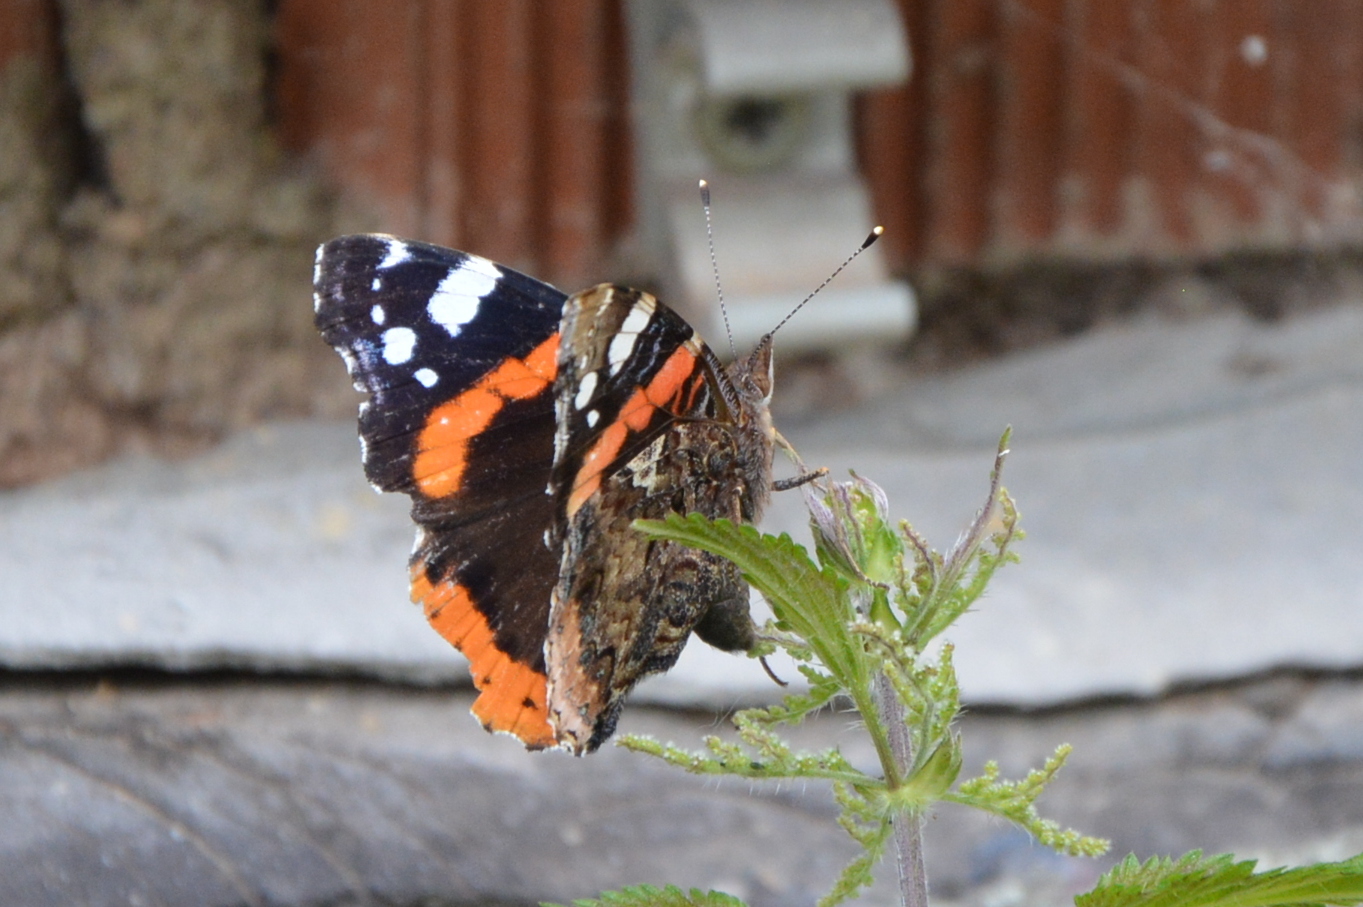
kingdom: Animalia
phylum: Arthropoda
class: Insecta
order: Lepidoptera
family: Nymphalidae
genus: Vanessa
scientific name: Vanessa atalanta
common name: Red admiral
